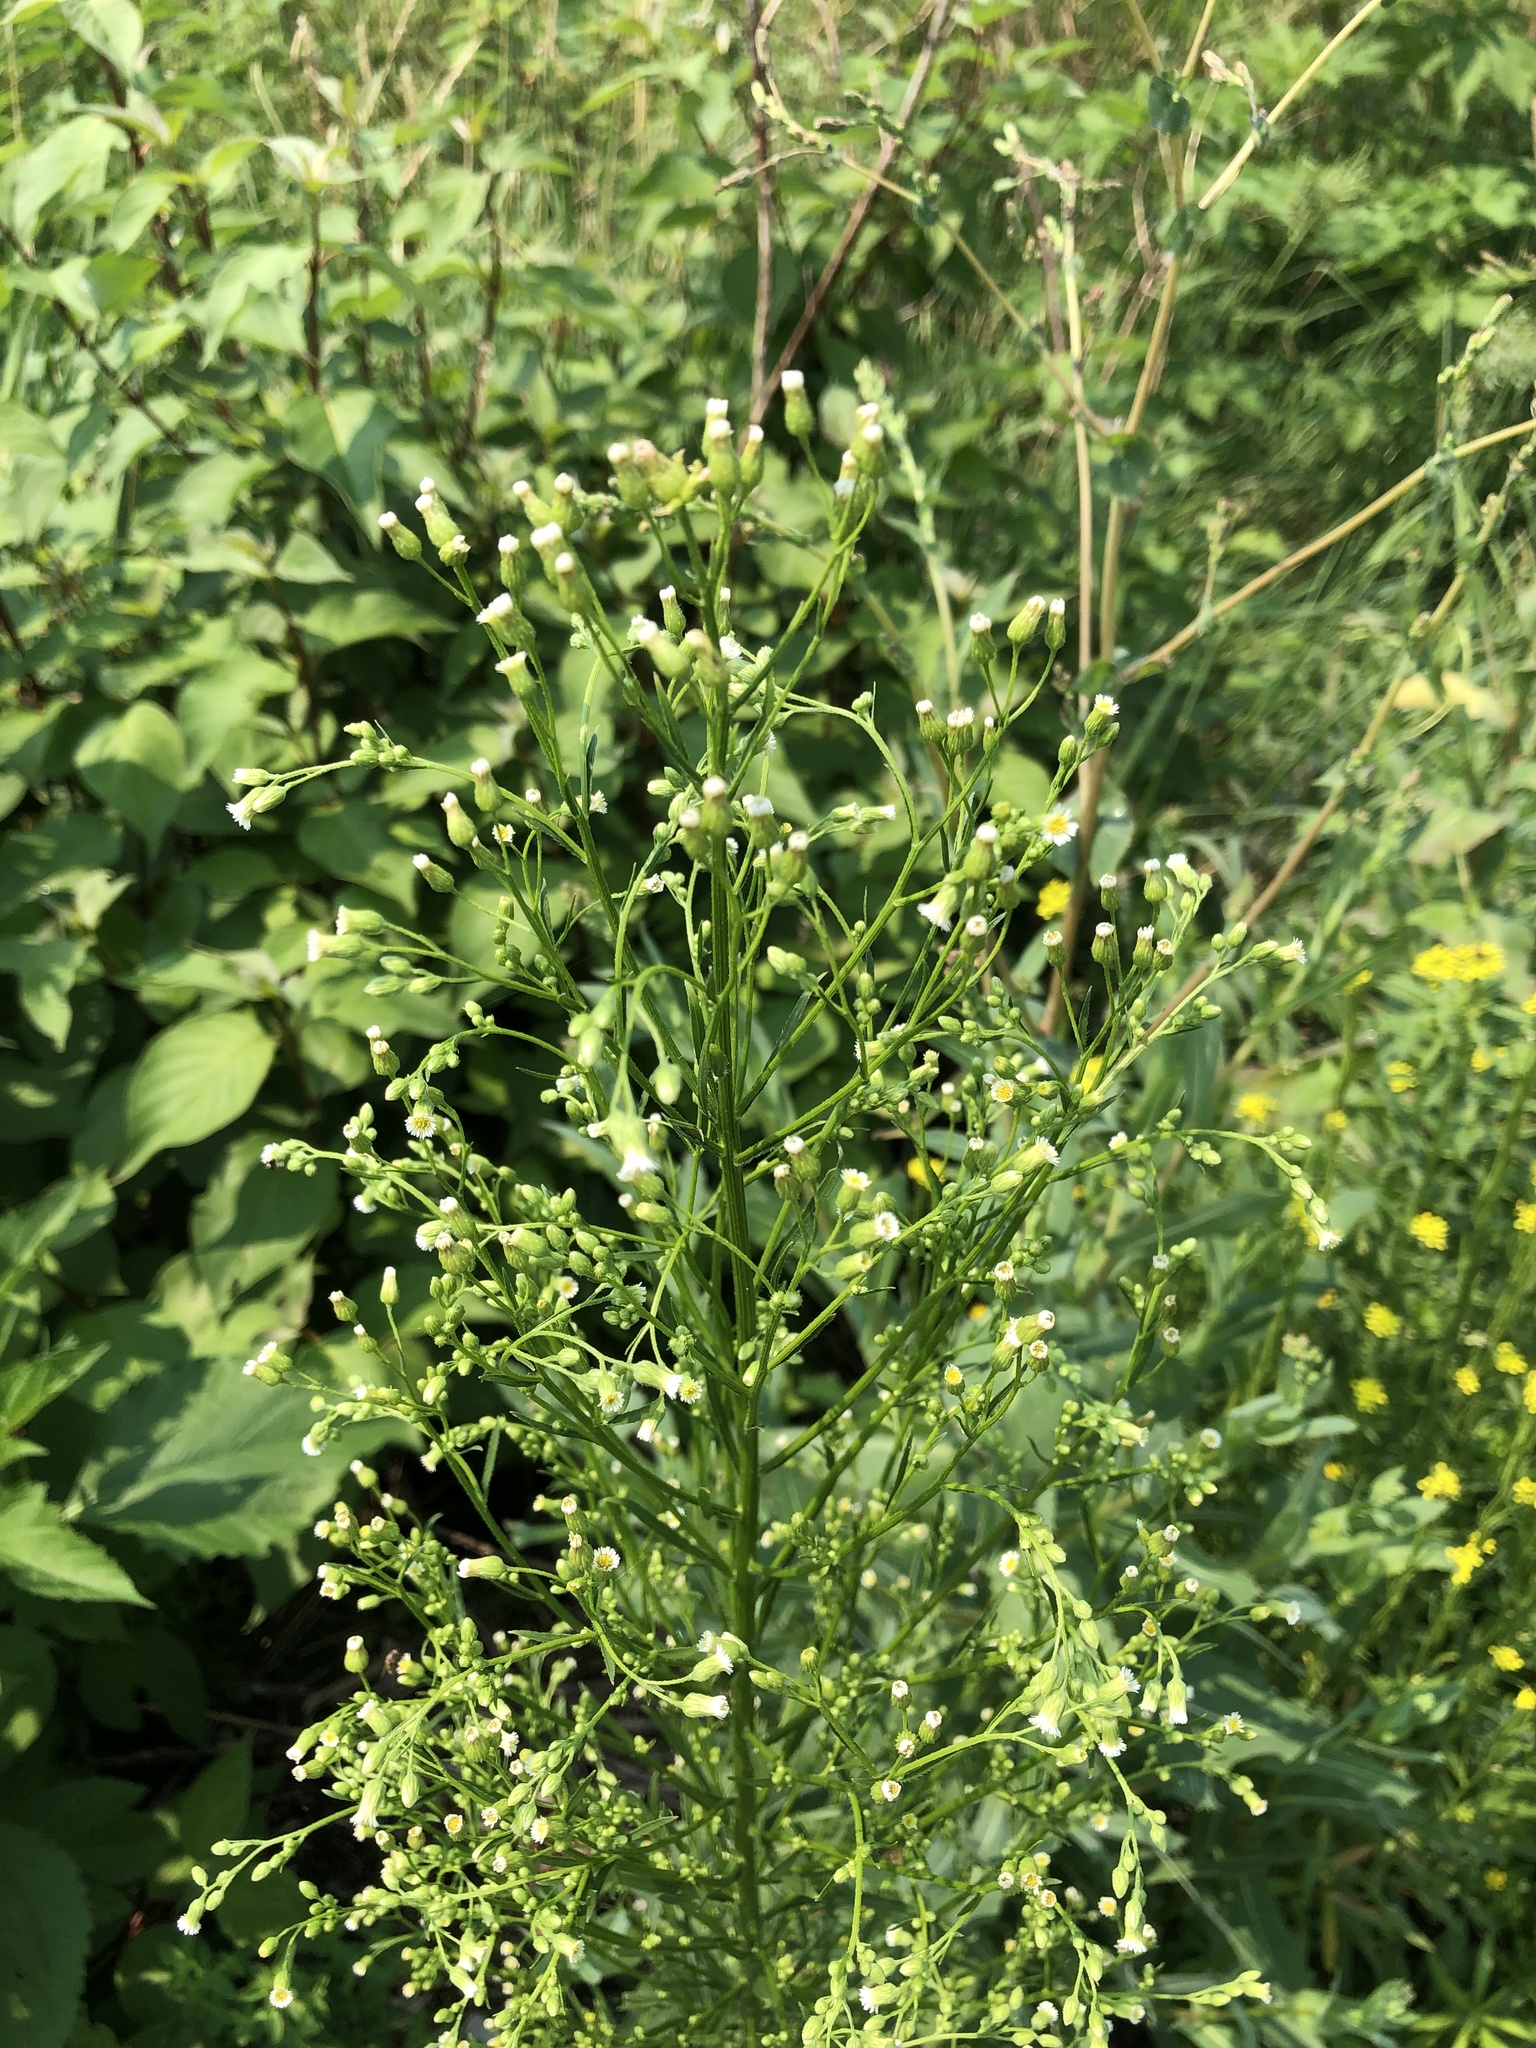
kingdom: Plantae
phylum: Tracheophyta
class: Magnoliopsida
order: Asterales
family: Asteraceae
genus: Erigeron
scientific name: Erigeron canadensis
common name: Canadian fleabane
